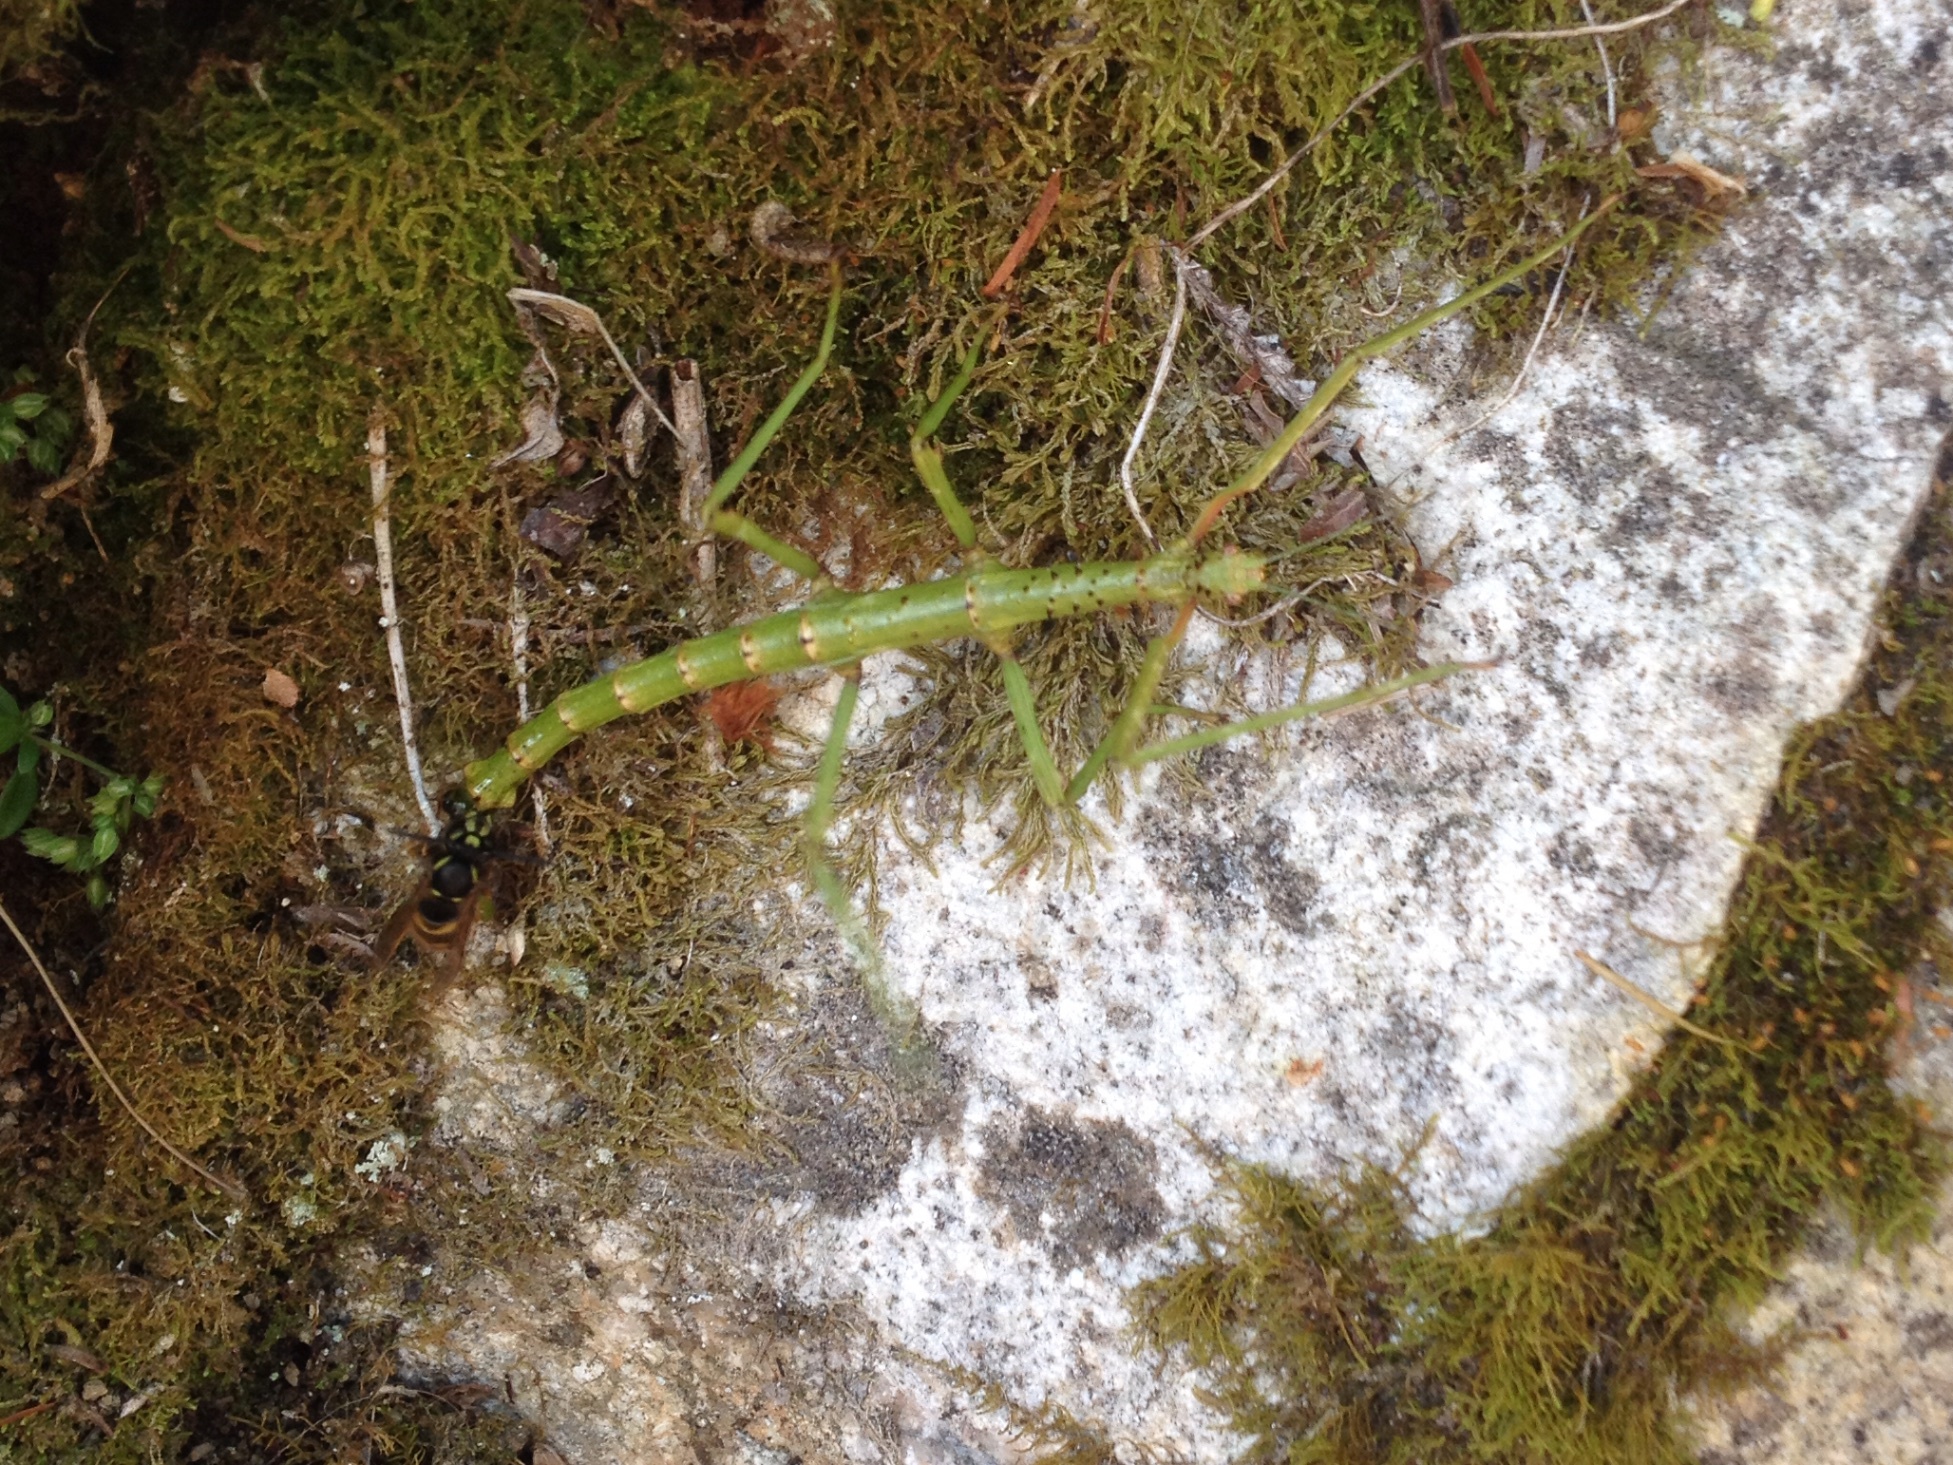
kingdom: Animalia
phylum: Arthropoda
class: Insecta
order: Hymenoptera
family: Vespidae
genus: Vespula
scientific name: Vespula vulgaris
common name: Common wasp
